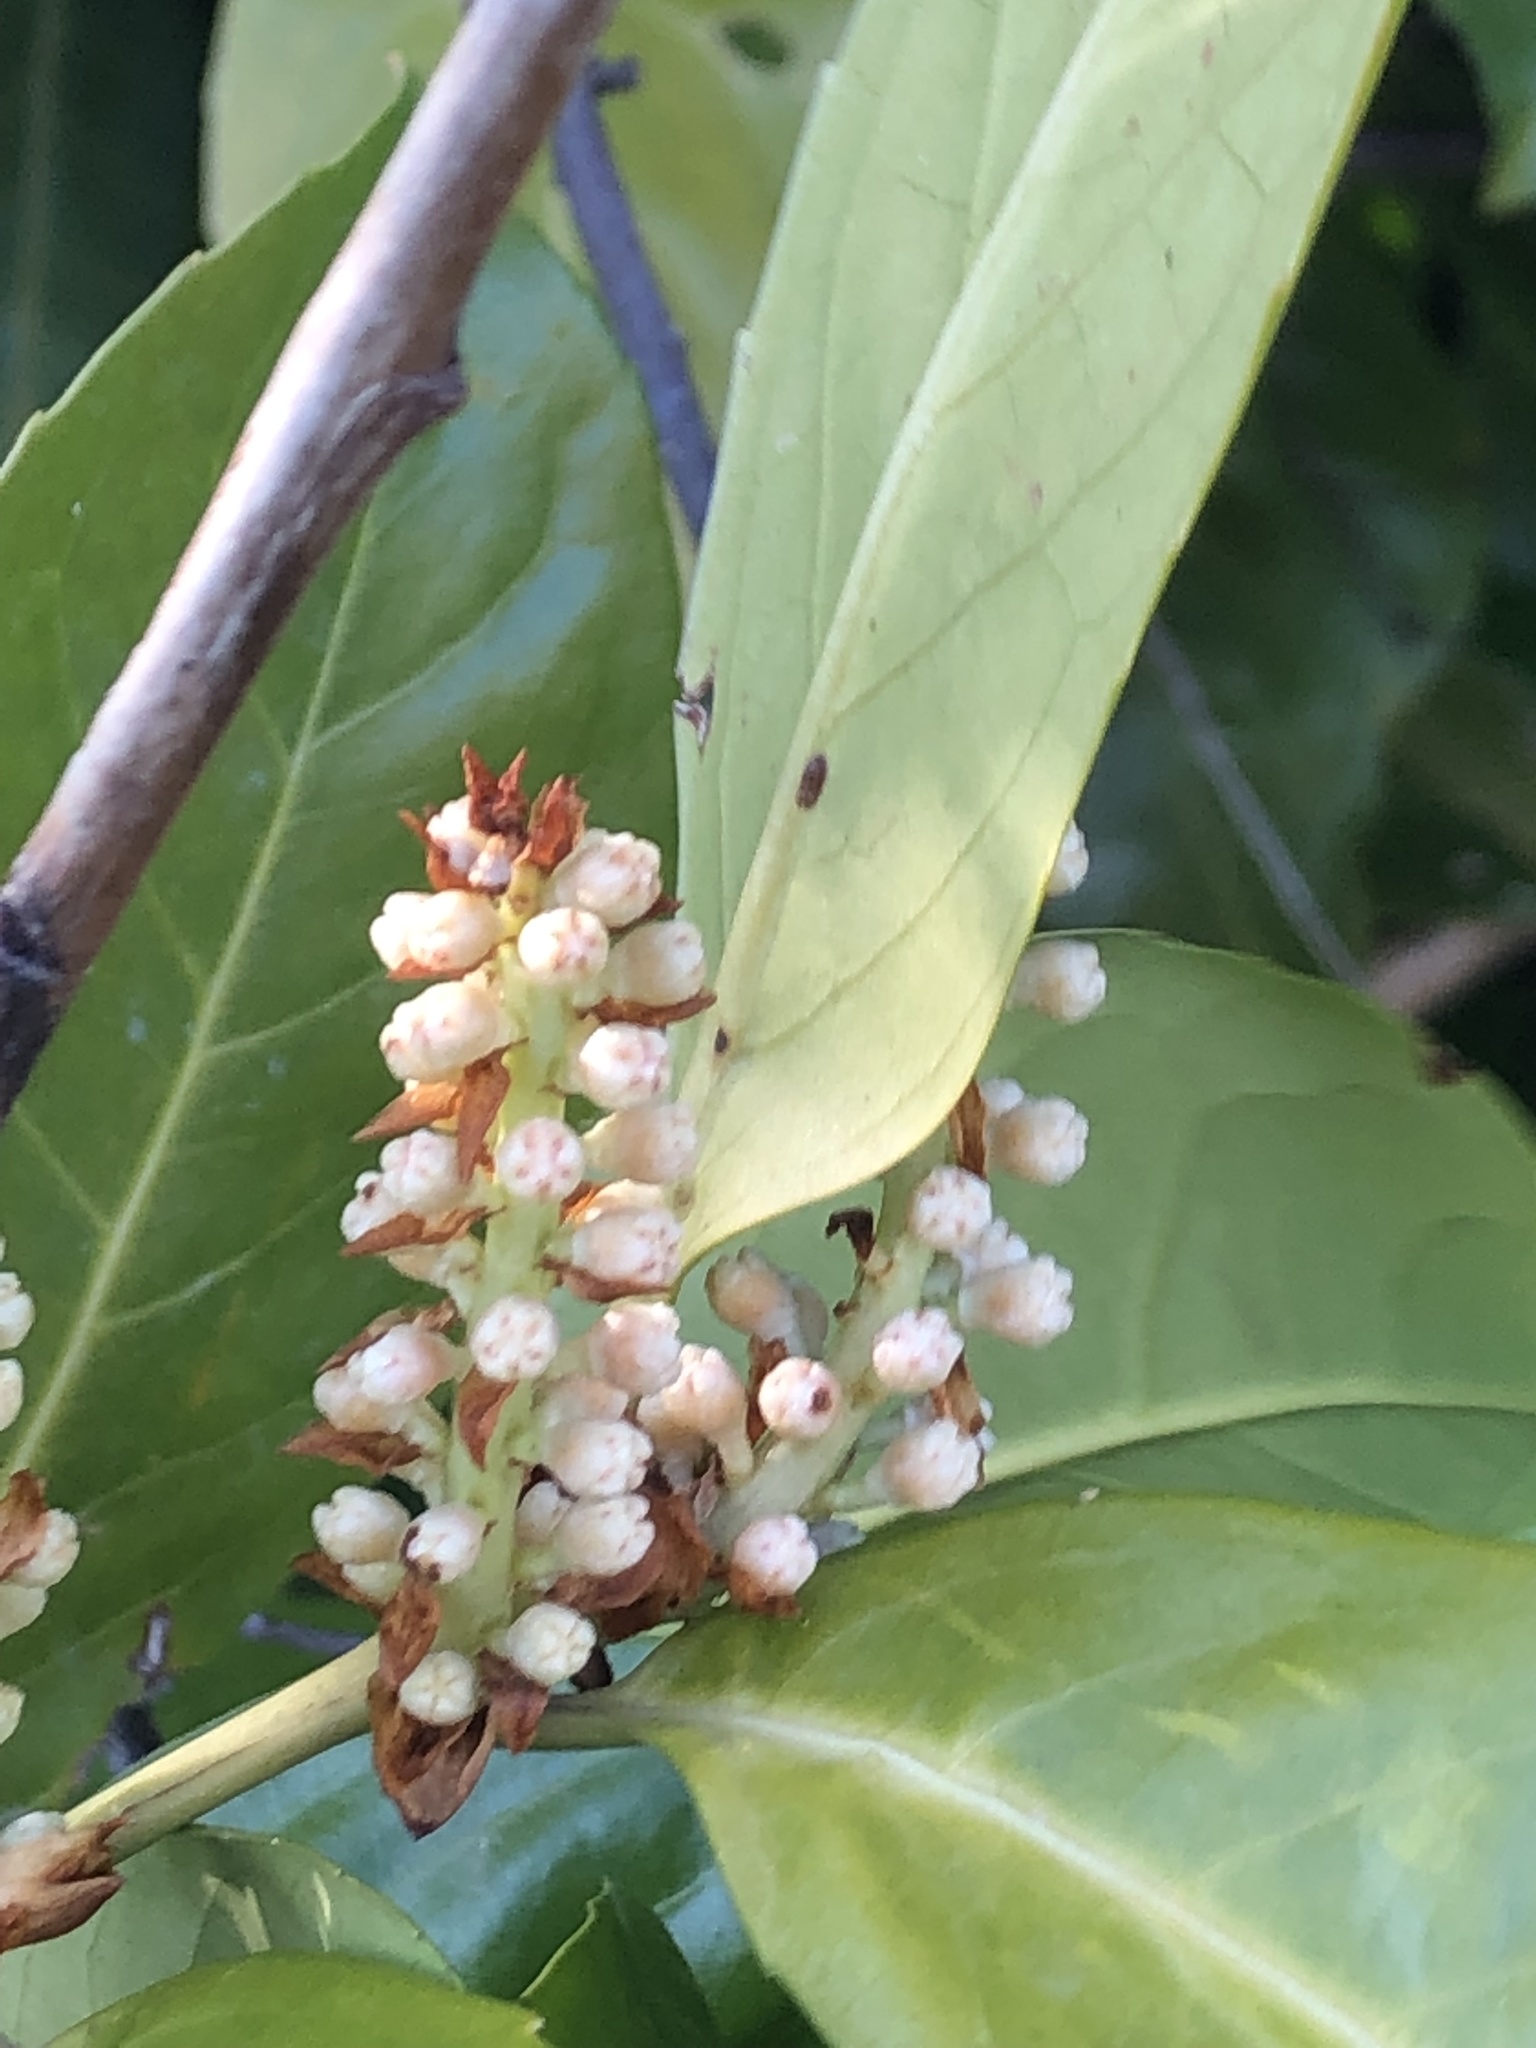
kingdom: Plantae
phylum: Tracheophyta
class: Magnoliopsida
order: Rosales
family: Rosaceae
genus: Prunus
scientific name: Prunus laurocerasus
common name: Cherry laurel
